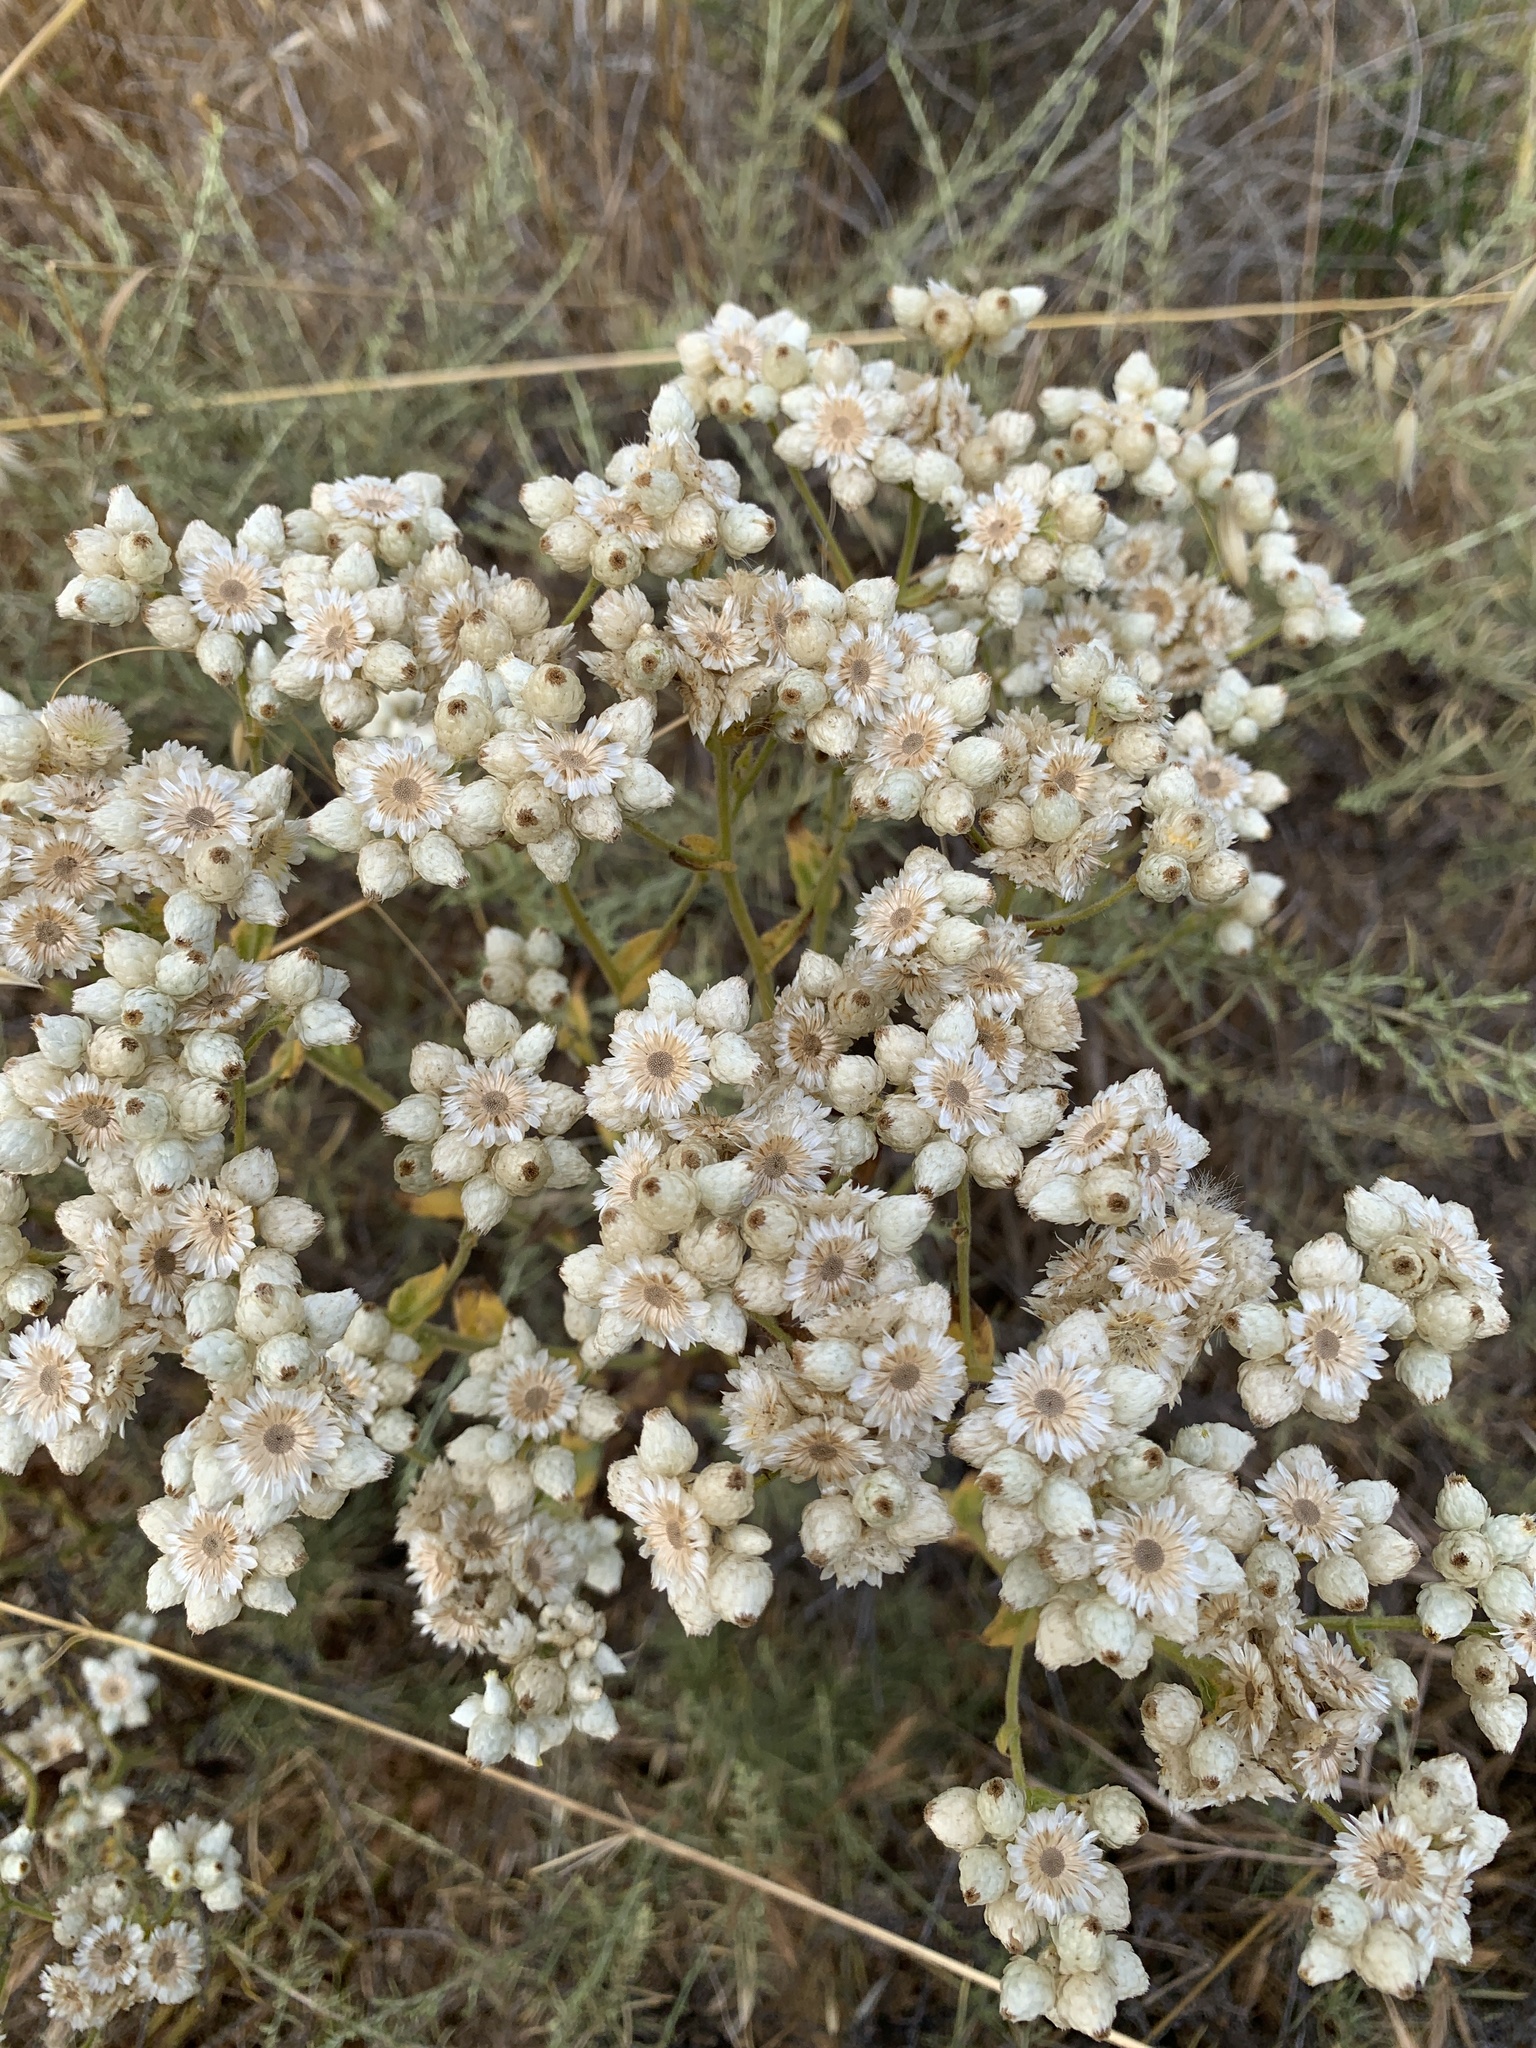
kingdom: Plantae
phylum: Tracheophyta
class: Magnoliopsida
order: Asterales
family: Asteraceae
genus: Pseudognaphalium
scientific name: Pseudognaphalium californicum
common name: California rabbit-tobacco
